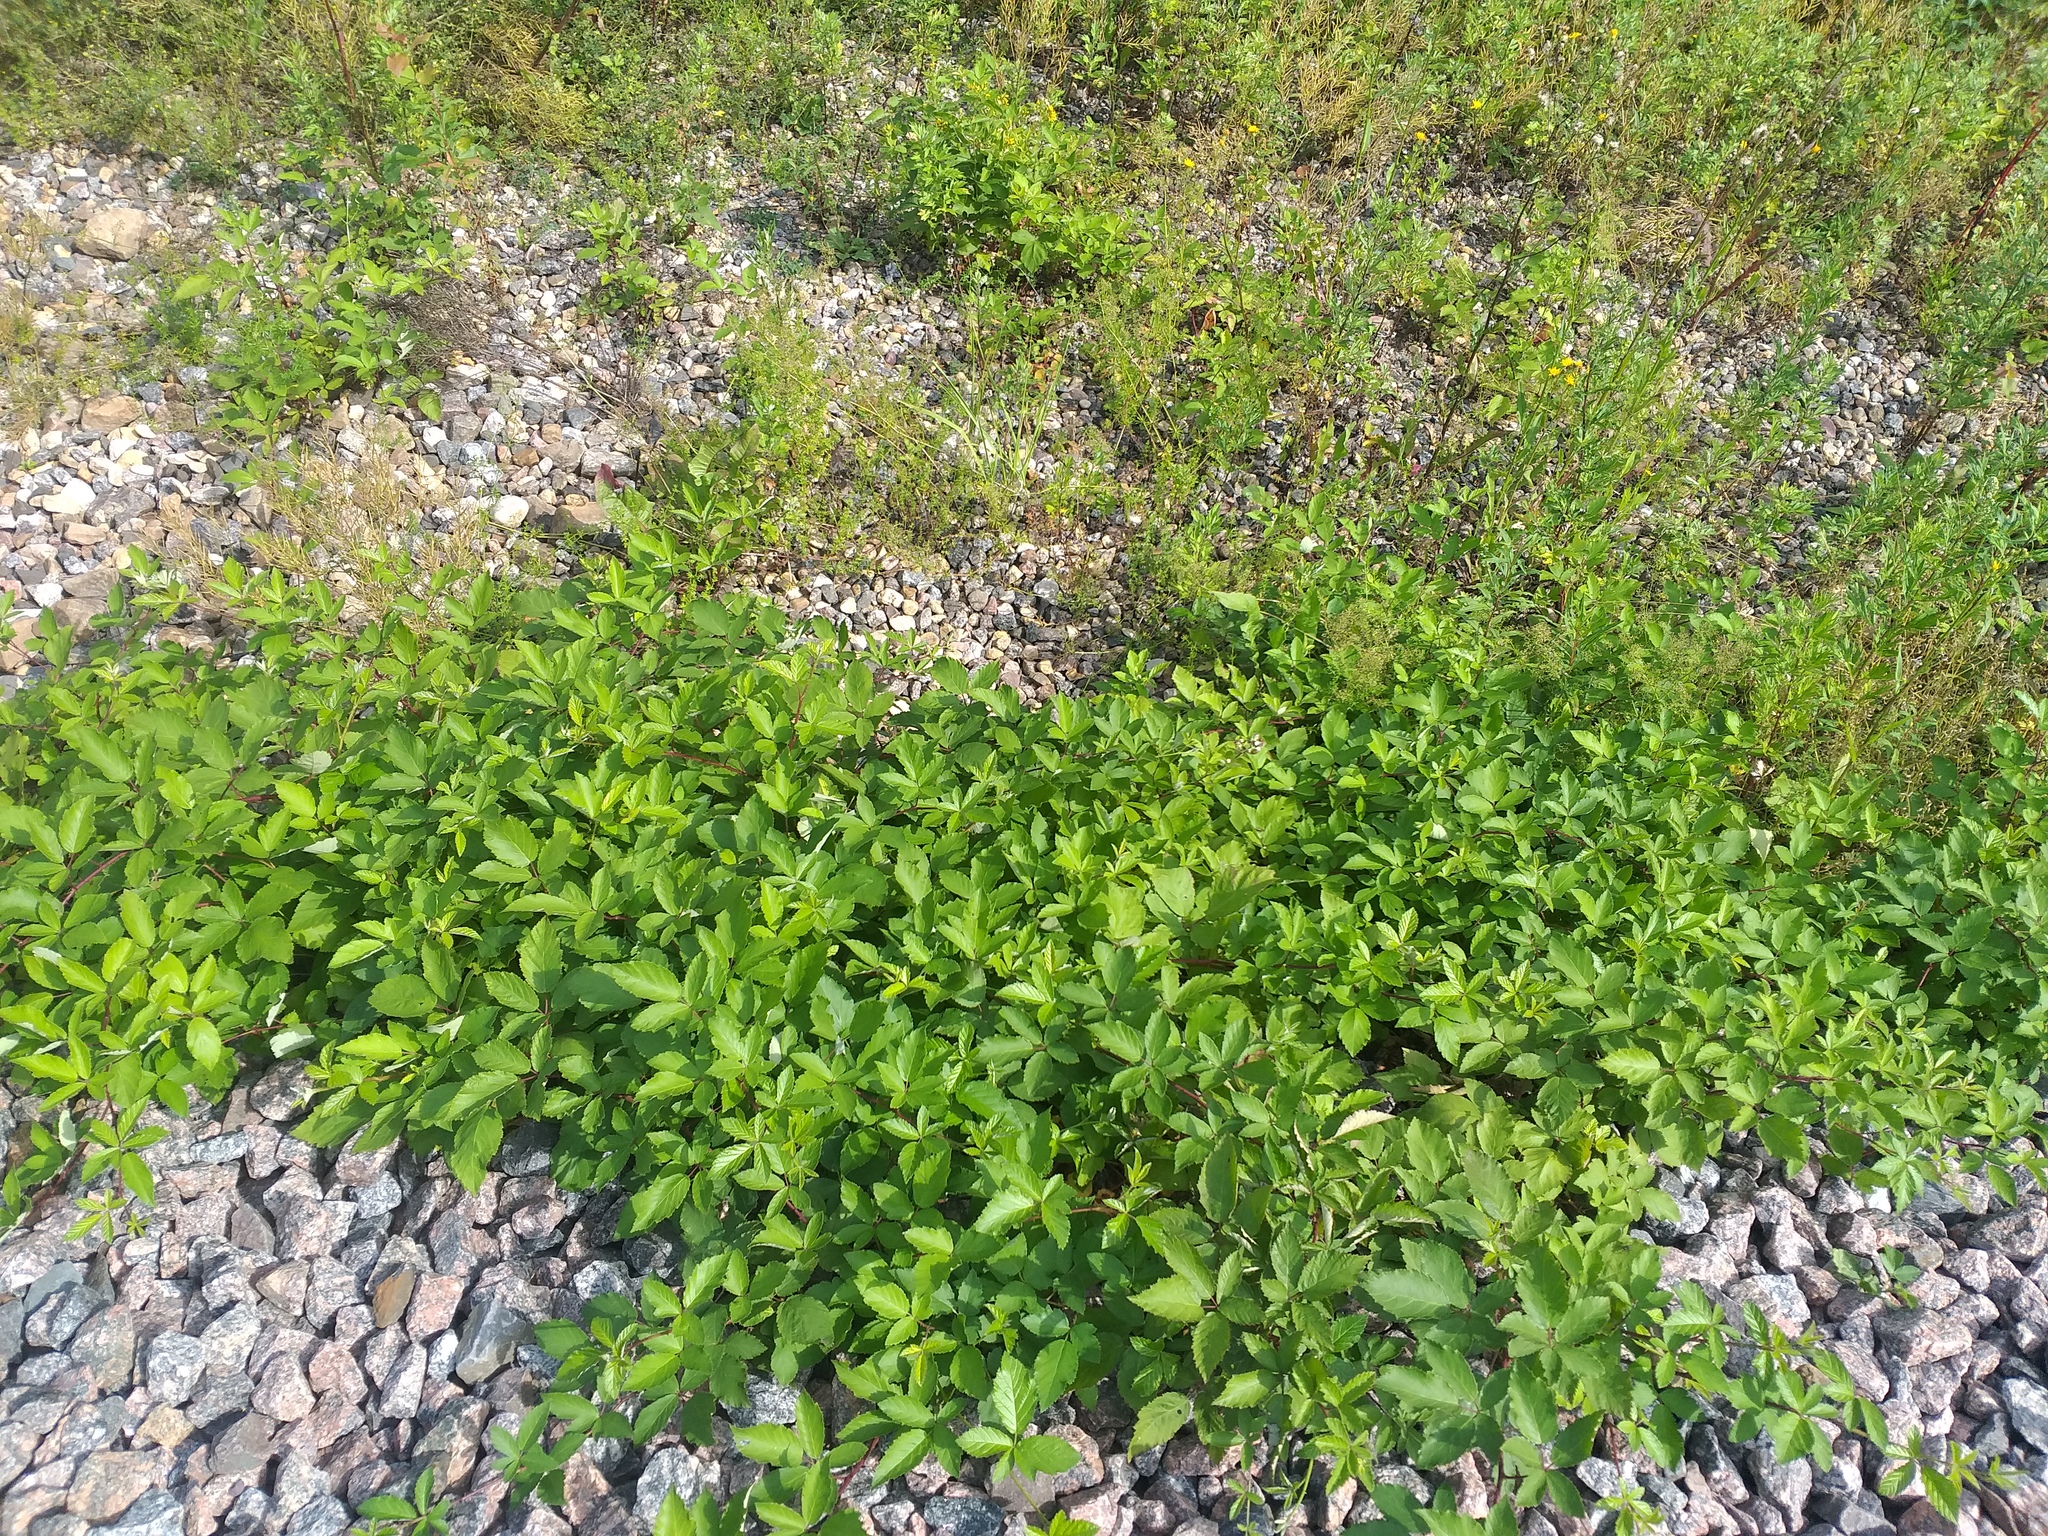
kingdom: Plantae
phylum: Tracheophyta
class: Magnoliopsida
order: Rosales
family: Rosaceae
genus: Rubus
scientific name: Rubus procerus
